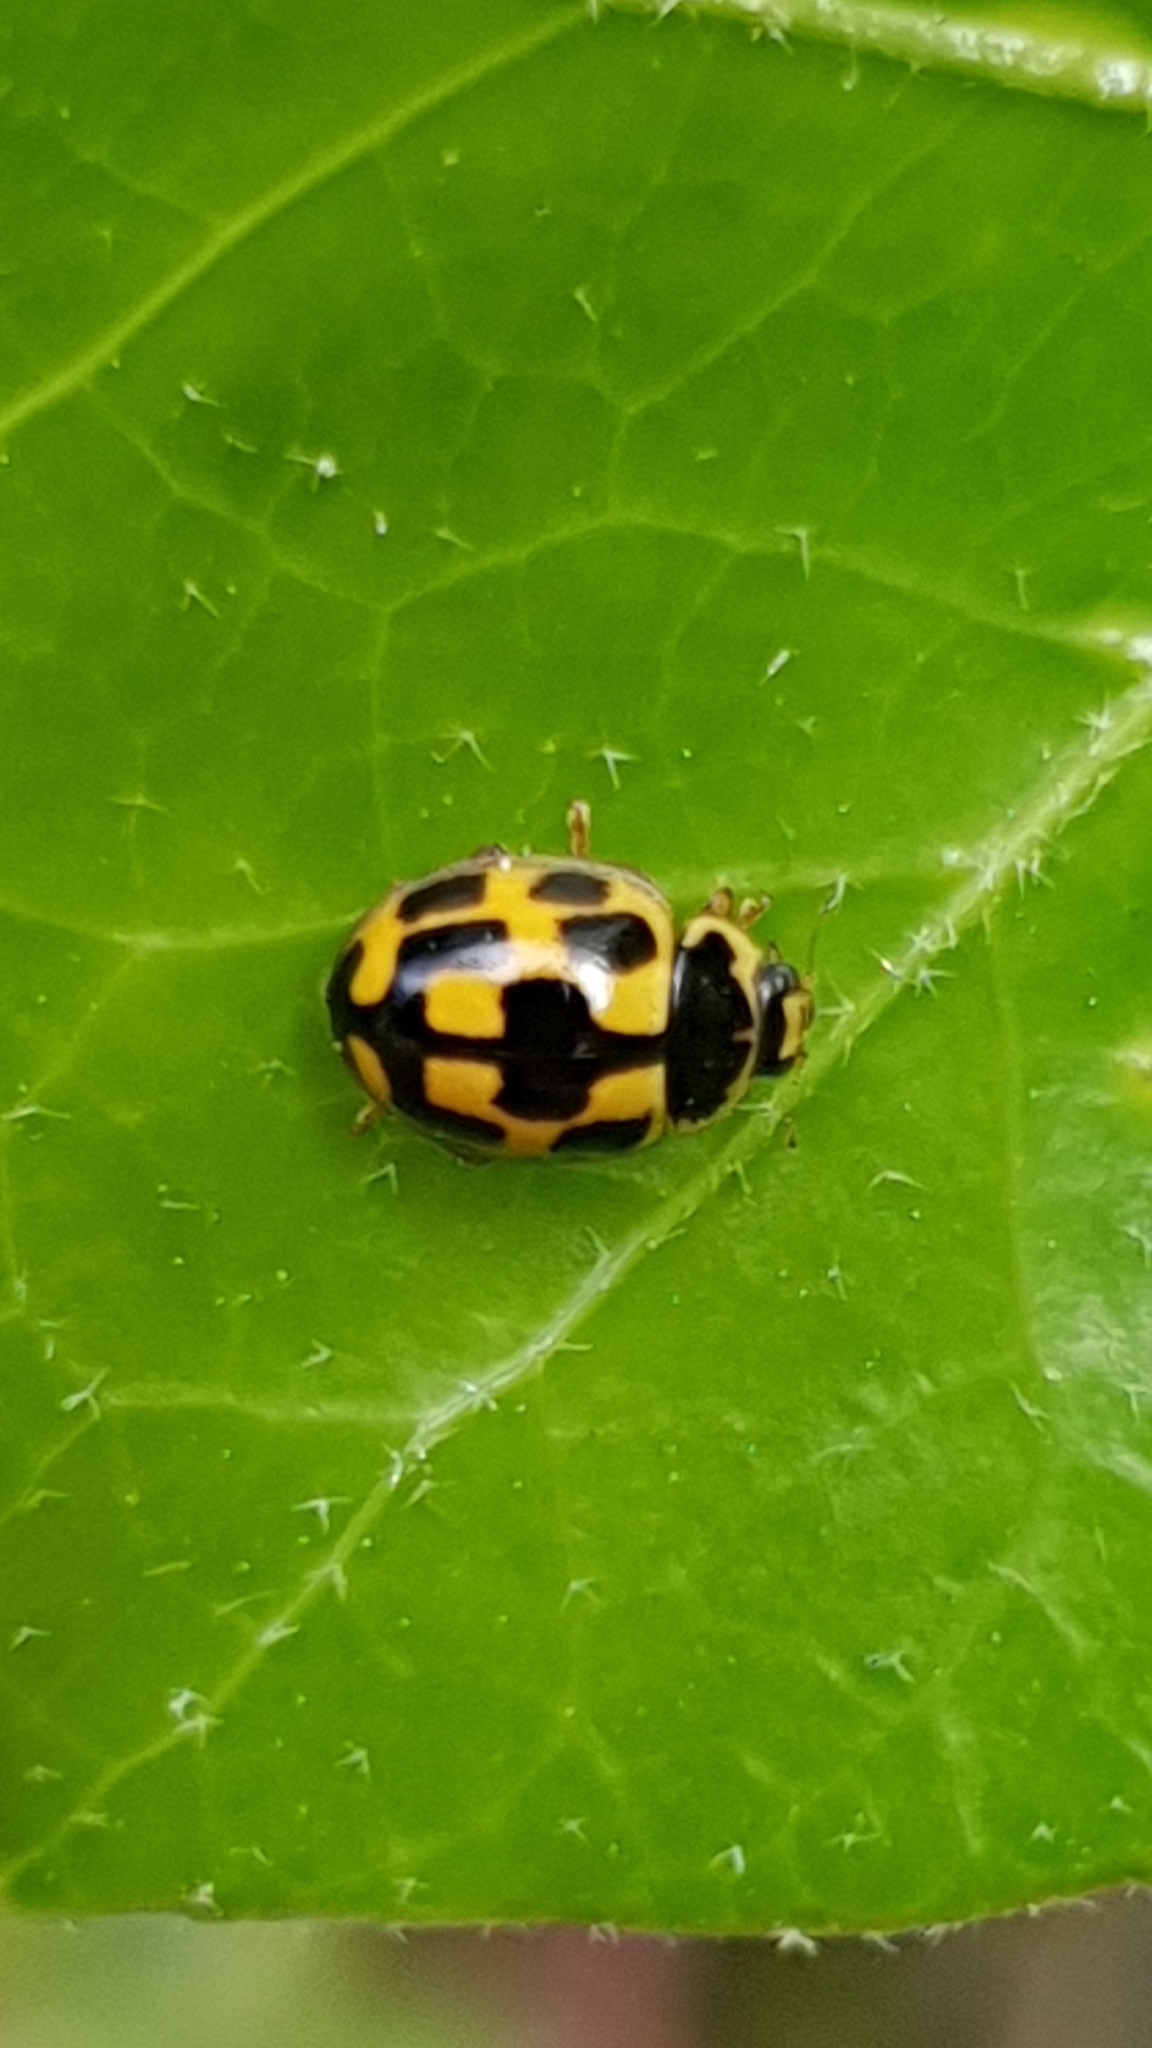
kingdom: Animalia
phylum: Arthropoda
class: Insecta
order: Coleoptera
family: Coccinellidae
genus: Propylaea
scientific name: Propylaea quatuordecimpunctata
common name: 14-spotted ladybird beetle
